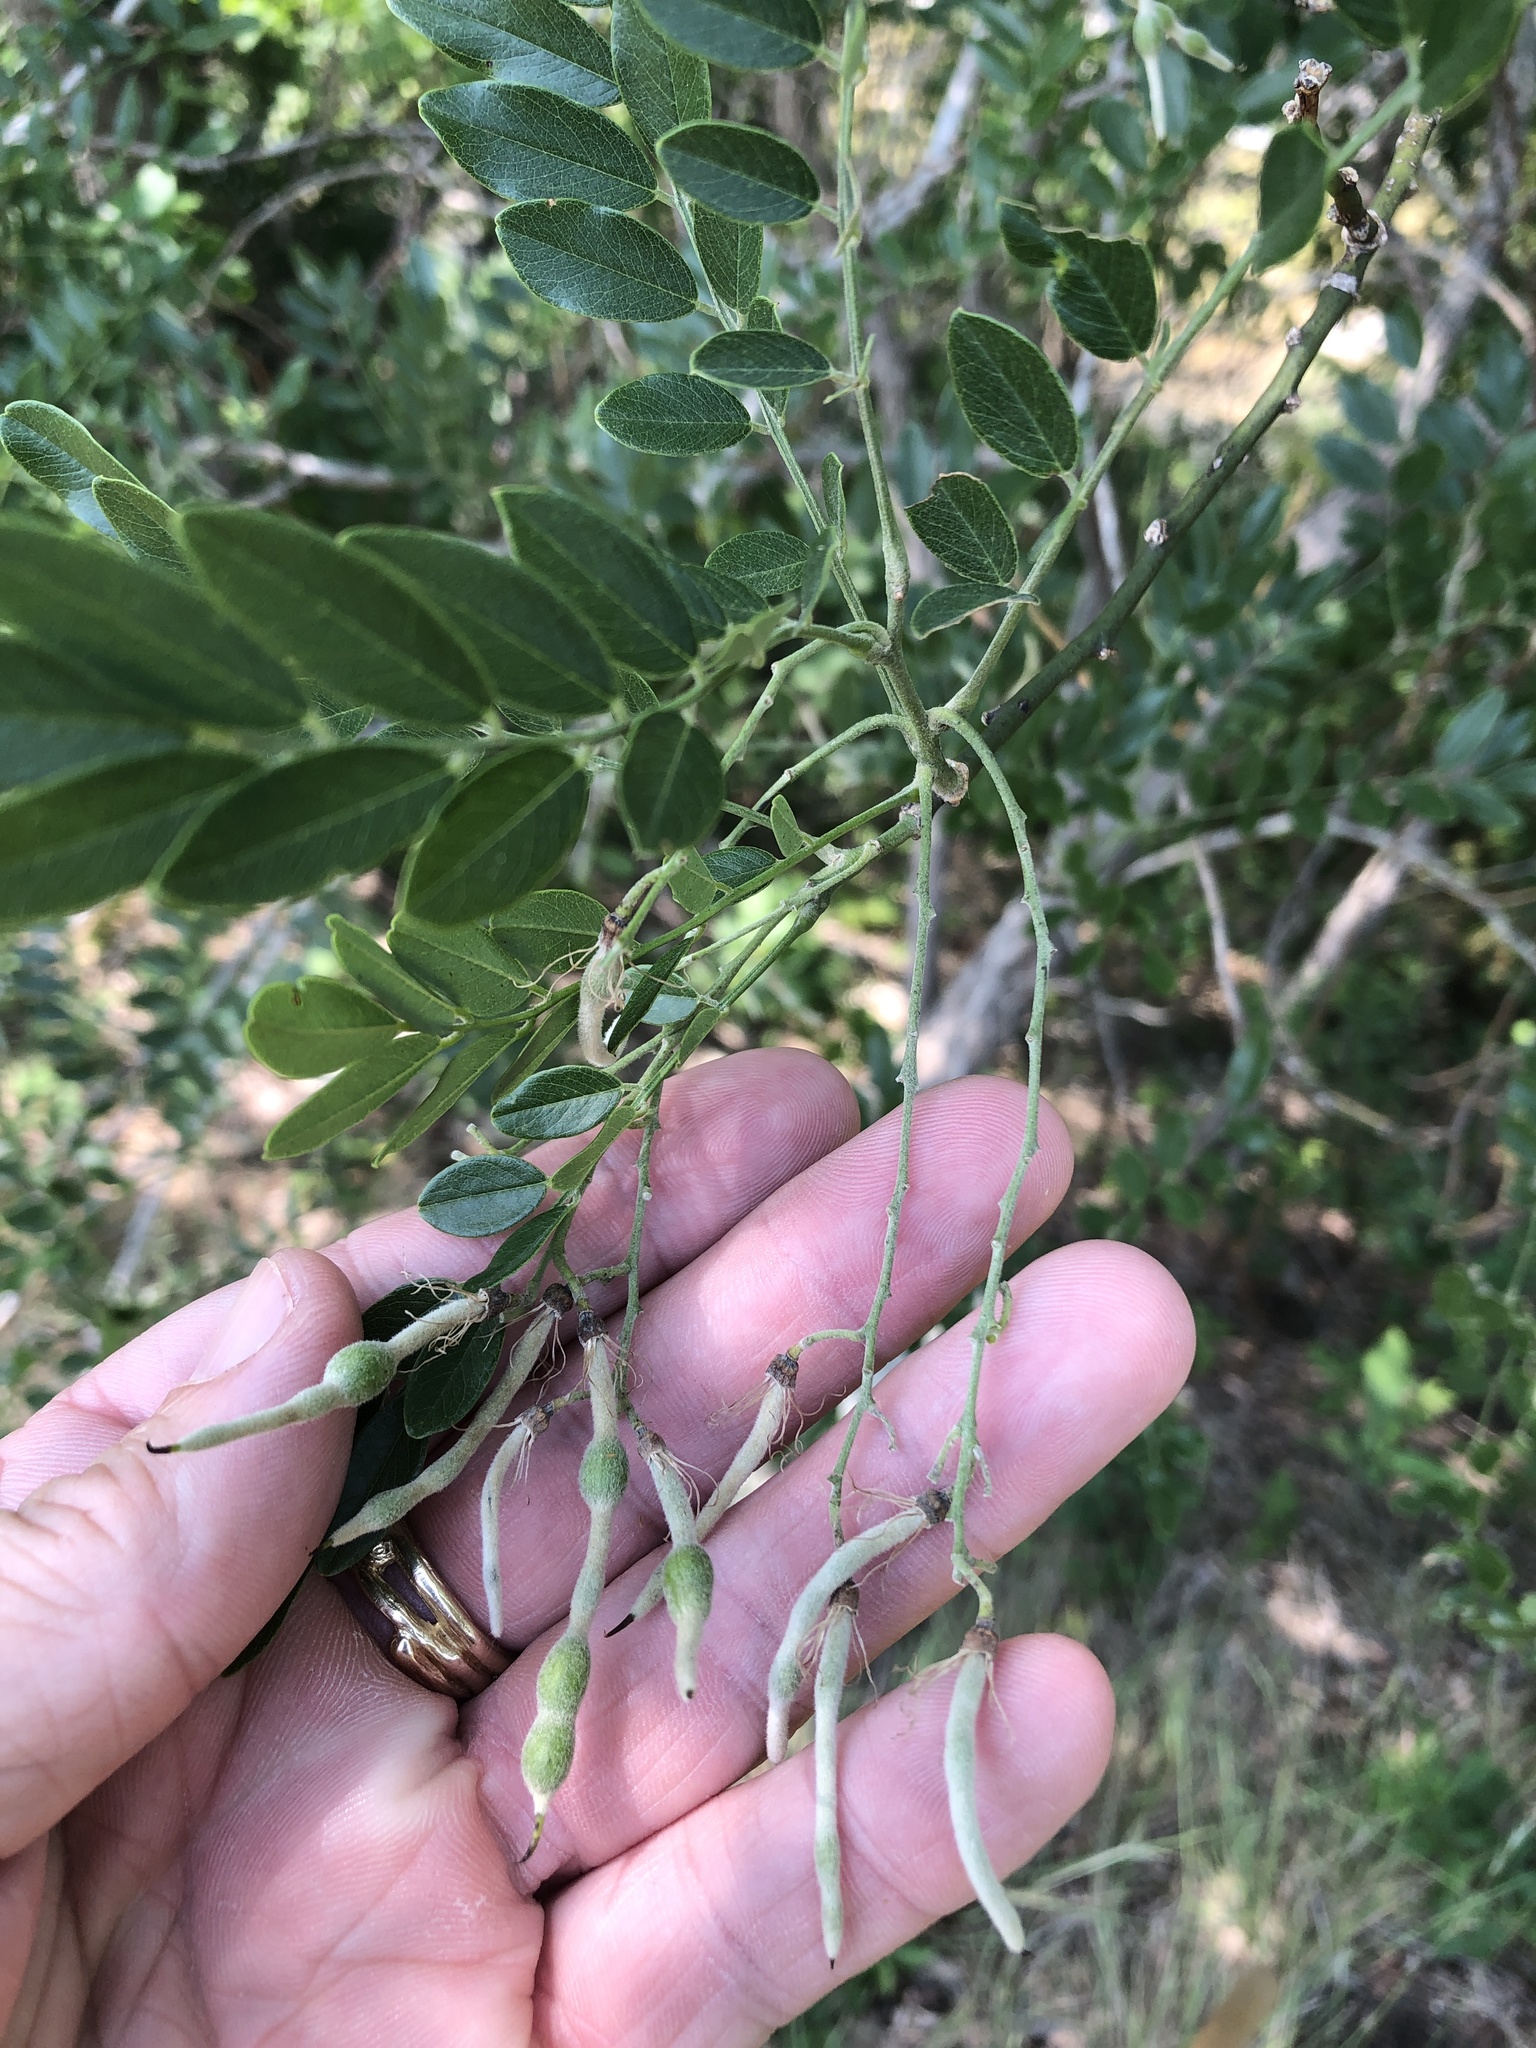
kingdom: Plantae
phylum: Tracheophyta
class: Magnoliopsida
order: Fabales
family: Fabaceae
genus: Styphnolobium
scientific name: Styphnolobium affine
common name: Texas sophora
